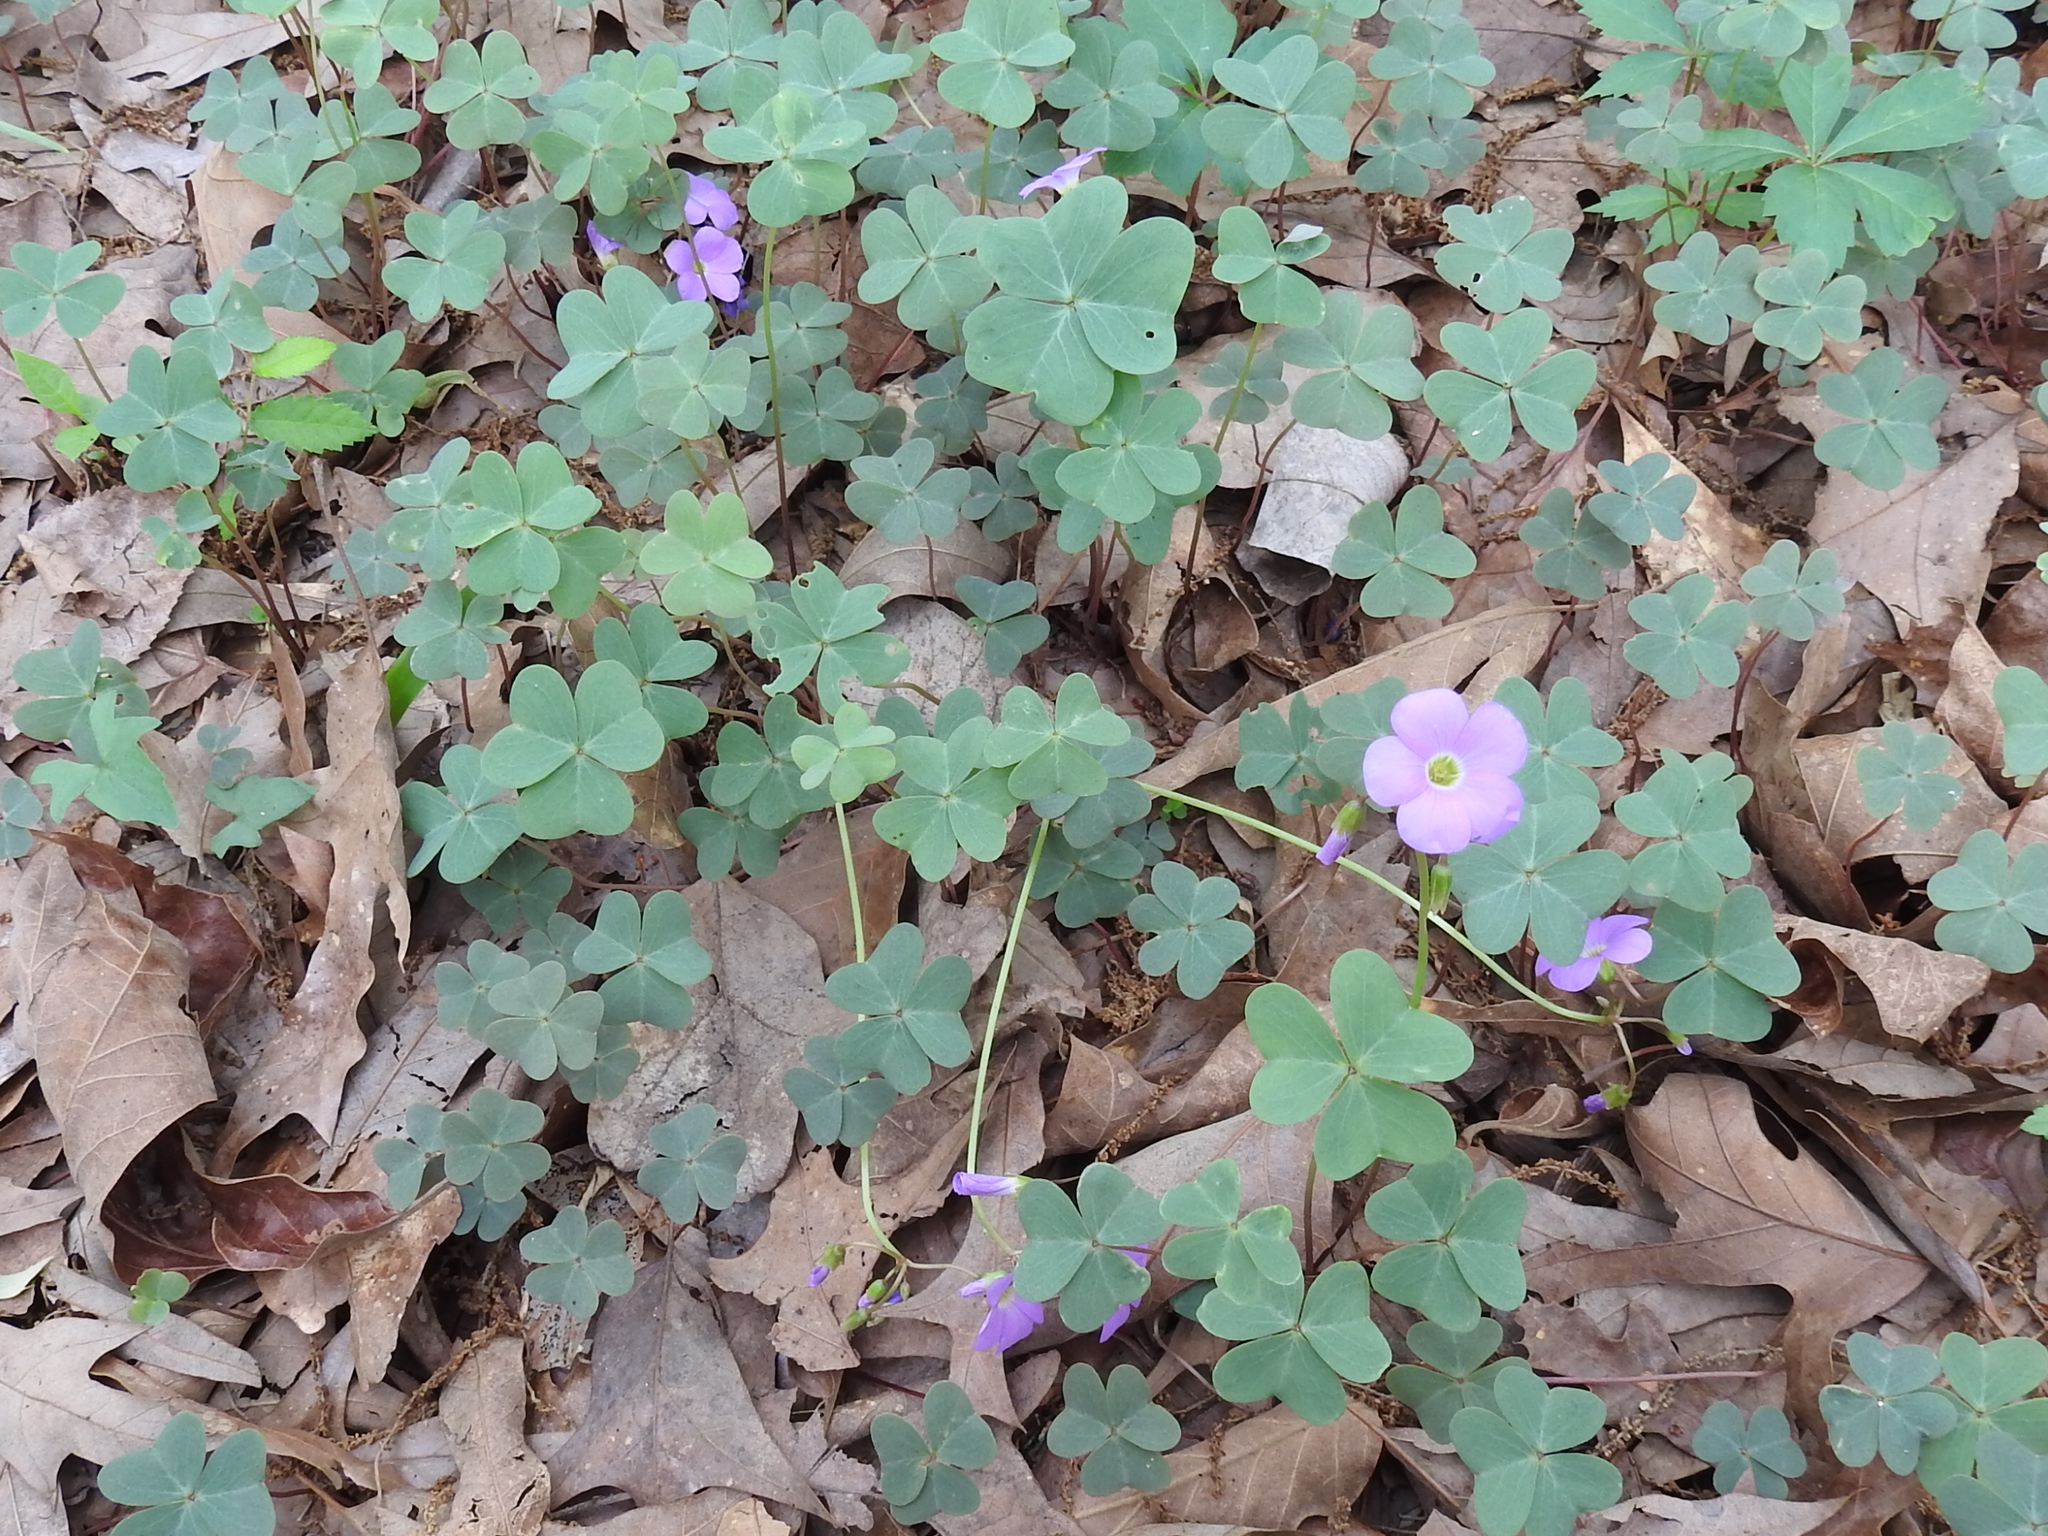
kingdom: Plantae
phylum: Tracheophyta
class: Magnoliopsida
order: Oxalidales
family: Oxalidaceae
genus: Oxalis
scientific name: Oxalis violacea
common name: Violet wood-sorrel
